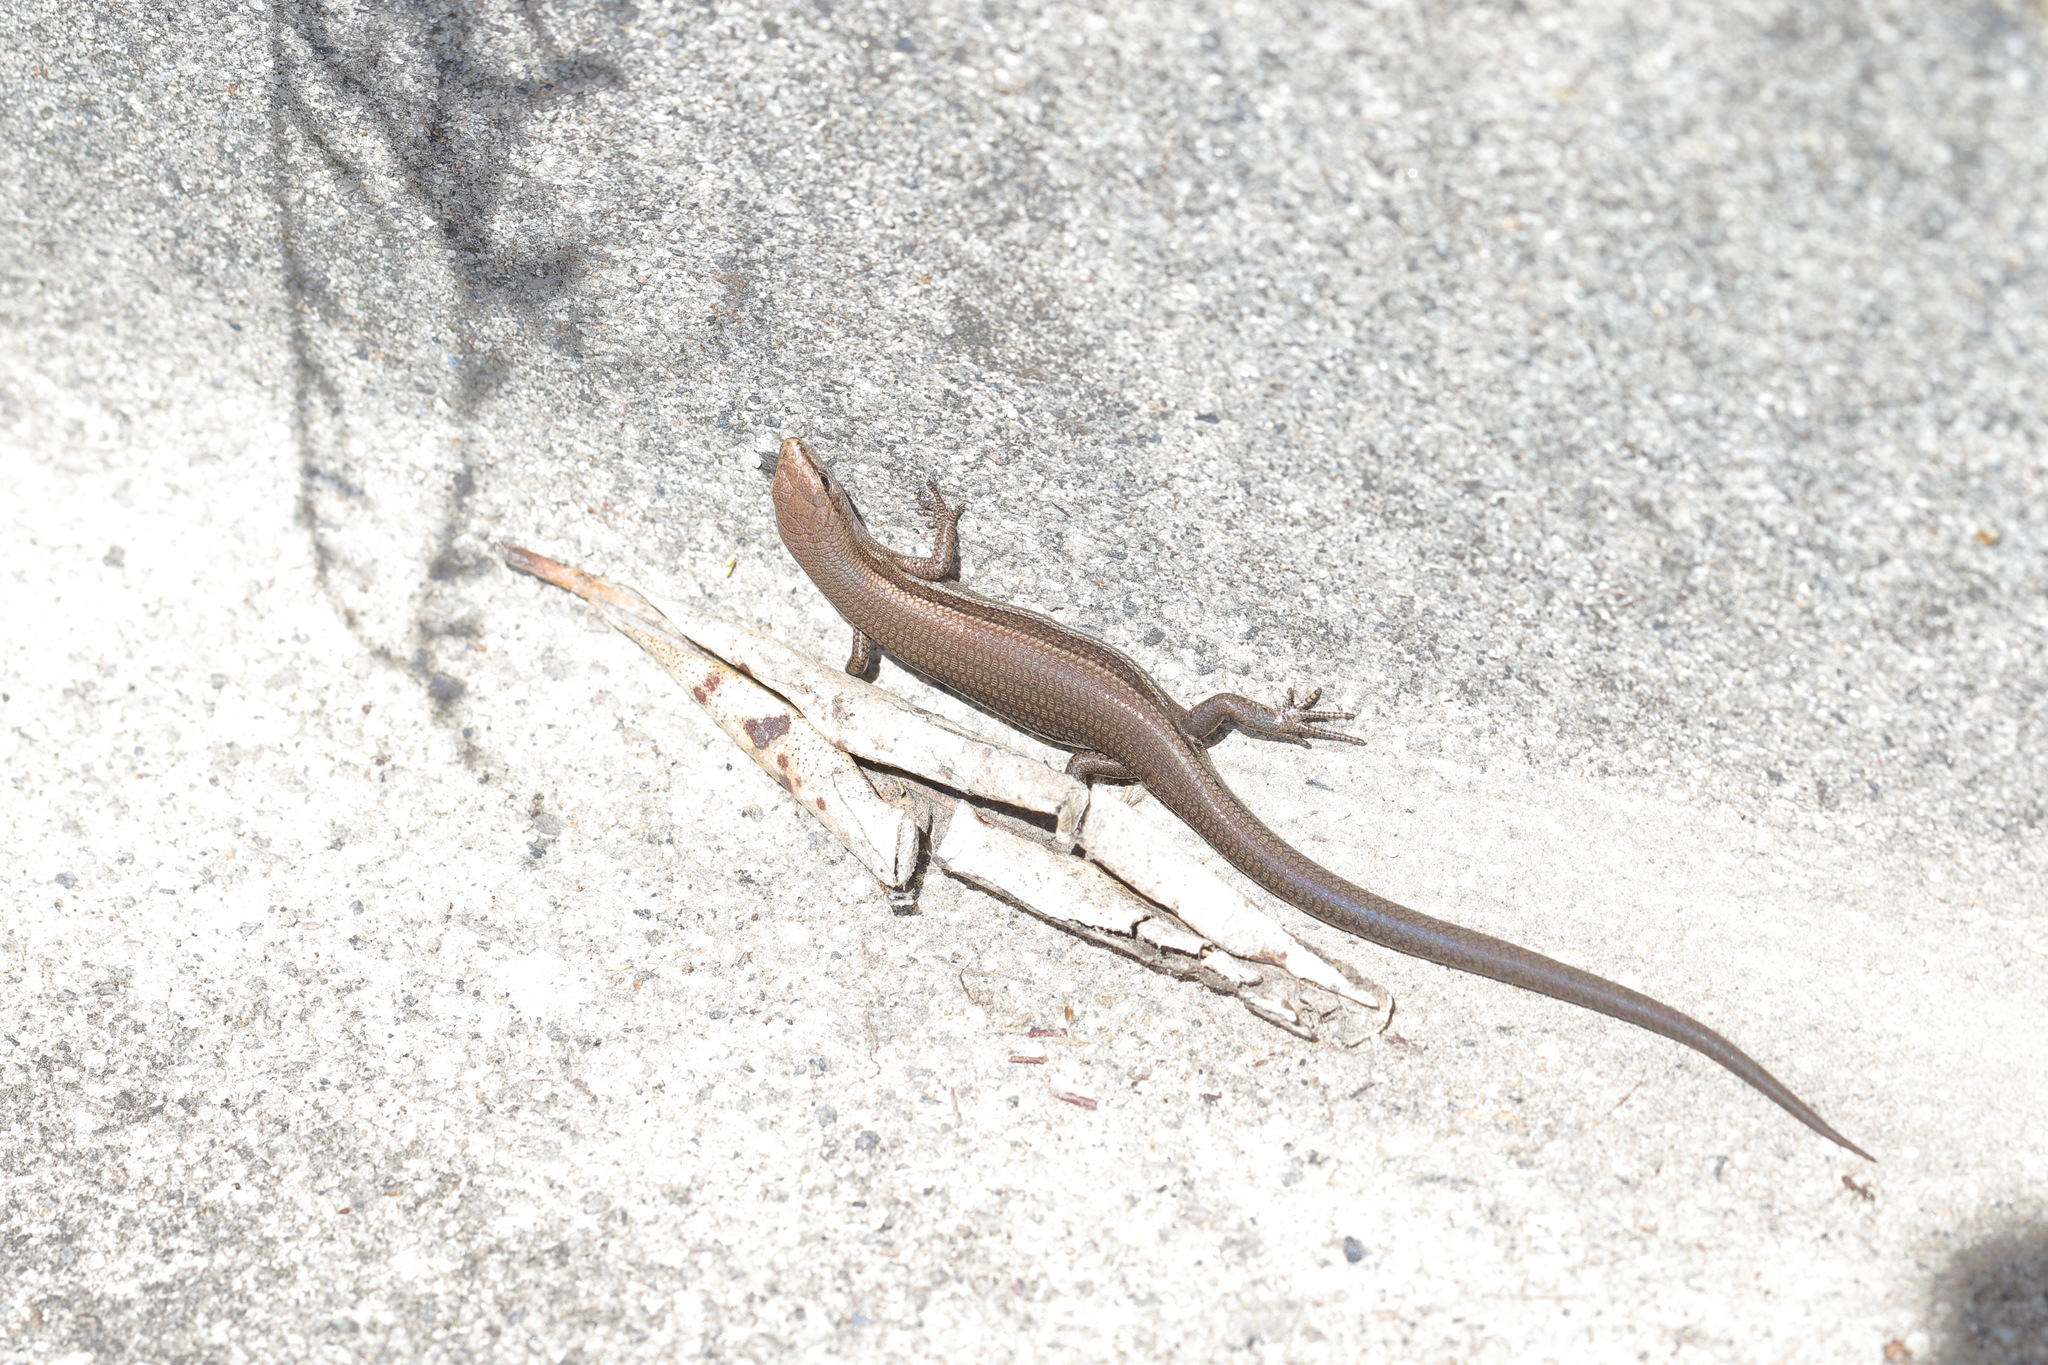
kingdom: Animalia
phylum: Chordata
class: Squamata
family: Scincidae
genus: Lampropholis
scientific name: Lampropholis delicata
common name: Plague skink
